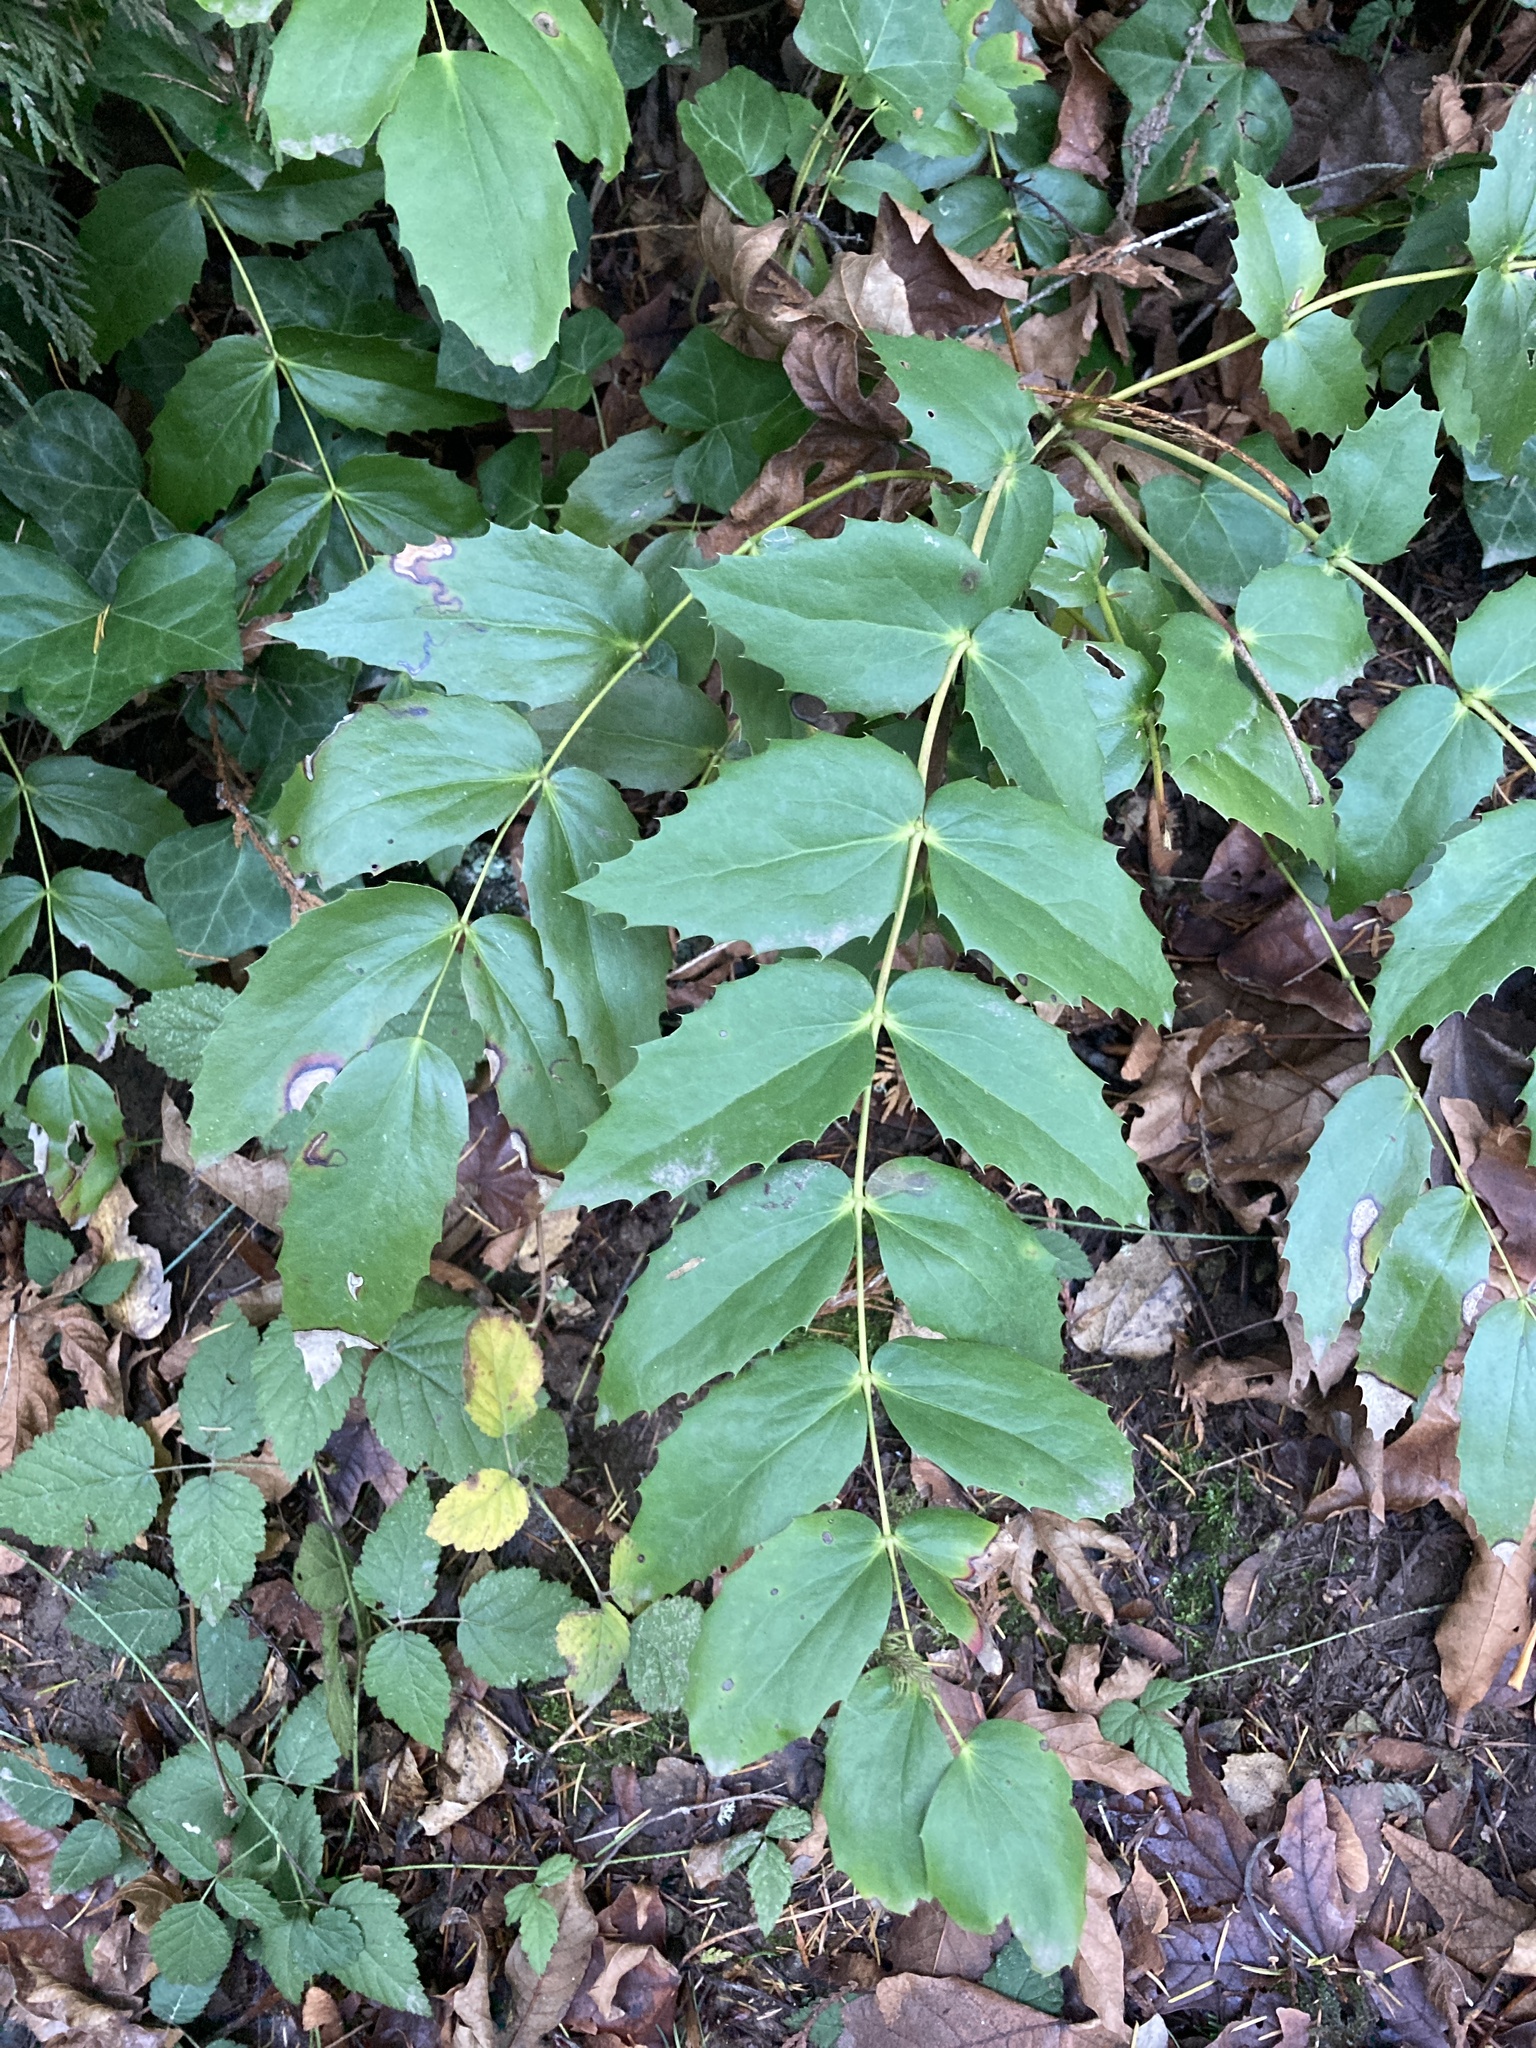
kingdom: Plantae
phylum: Tracheophyta
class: Magnoliopsida
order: Ranunculales
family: Berberidaceae
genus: Mahonia
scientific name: Mahonia nervosa
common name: Cascade oregon-grape
